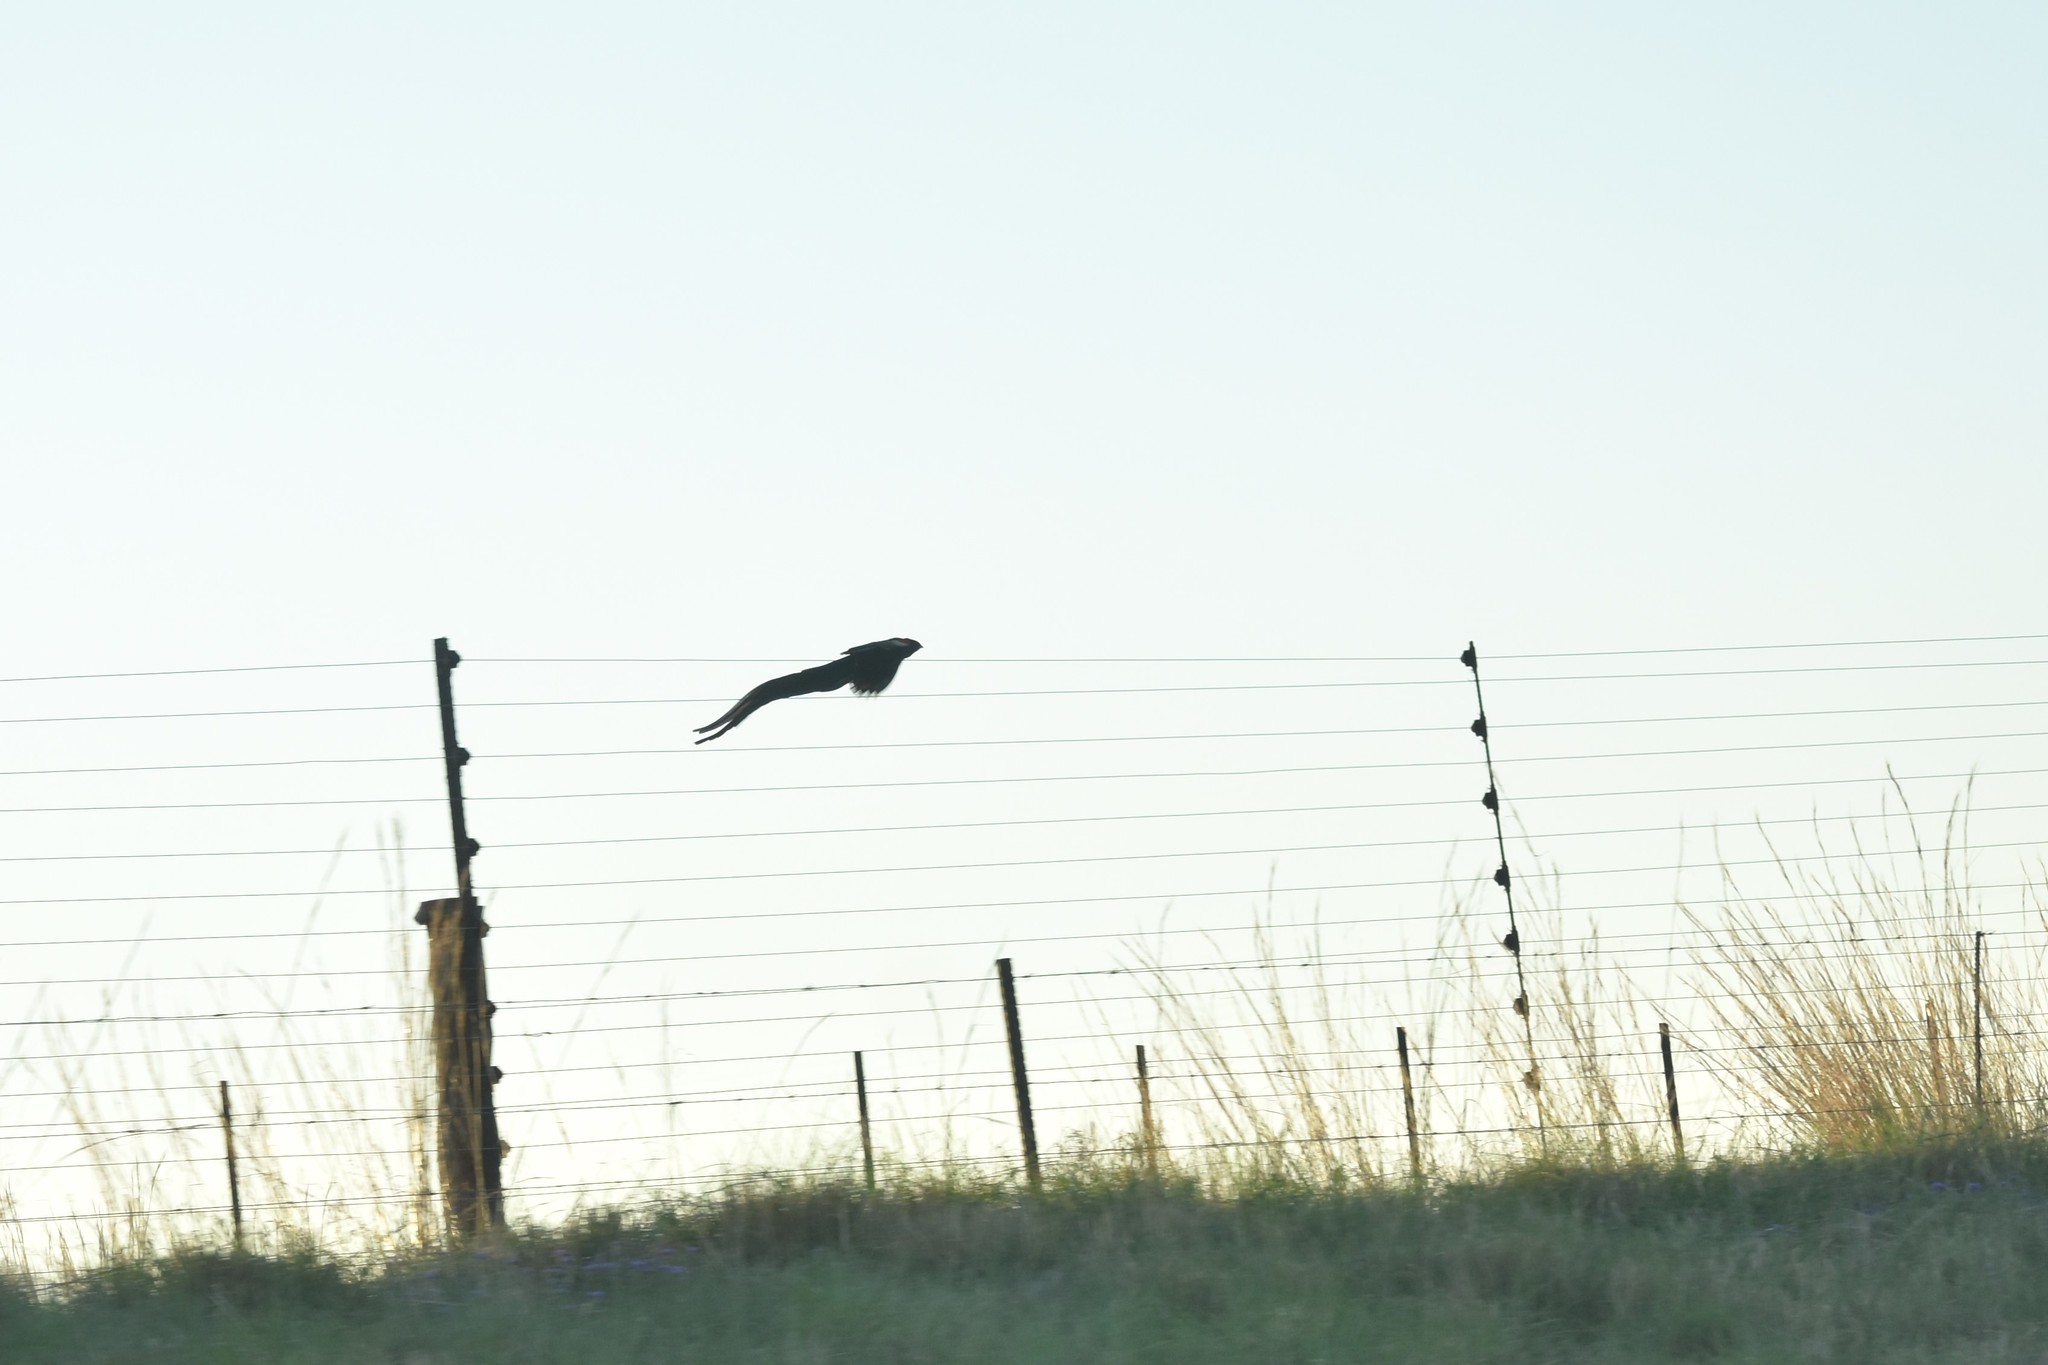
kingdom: Animalia
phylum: Chordata
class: Aves
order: Passeriformes
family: Ploceidae
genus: Euplectes
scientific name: Euplectes progne
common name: Long-tailed widowbird
